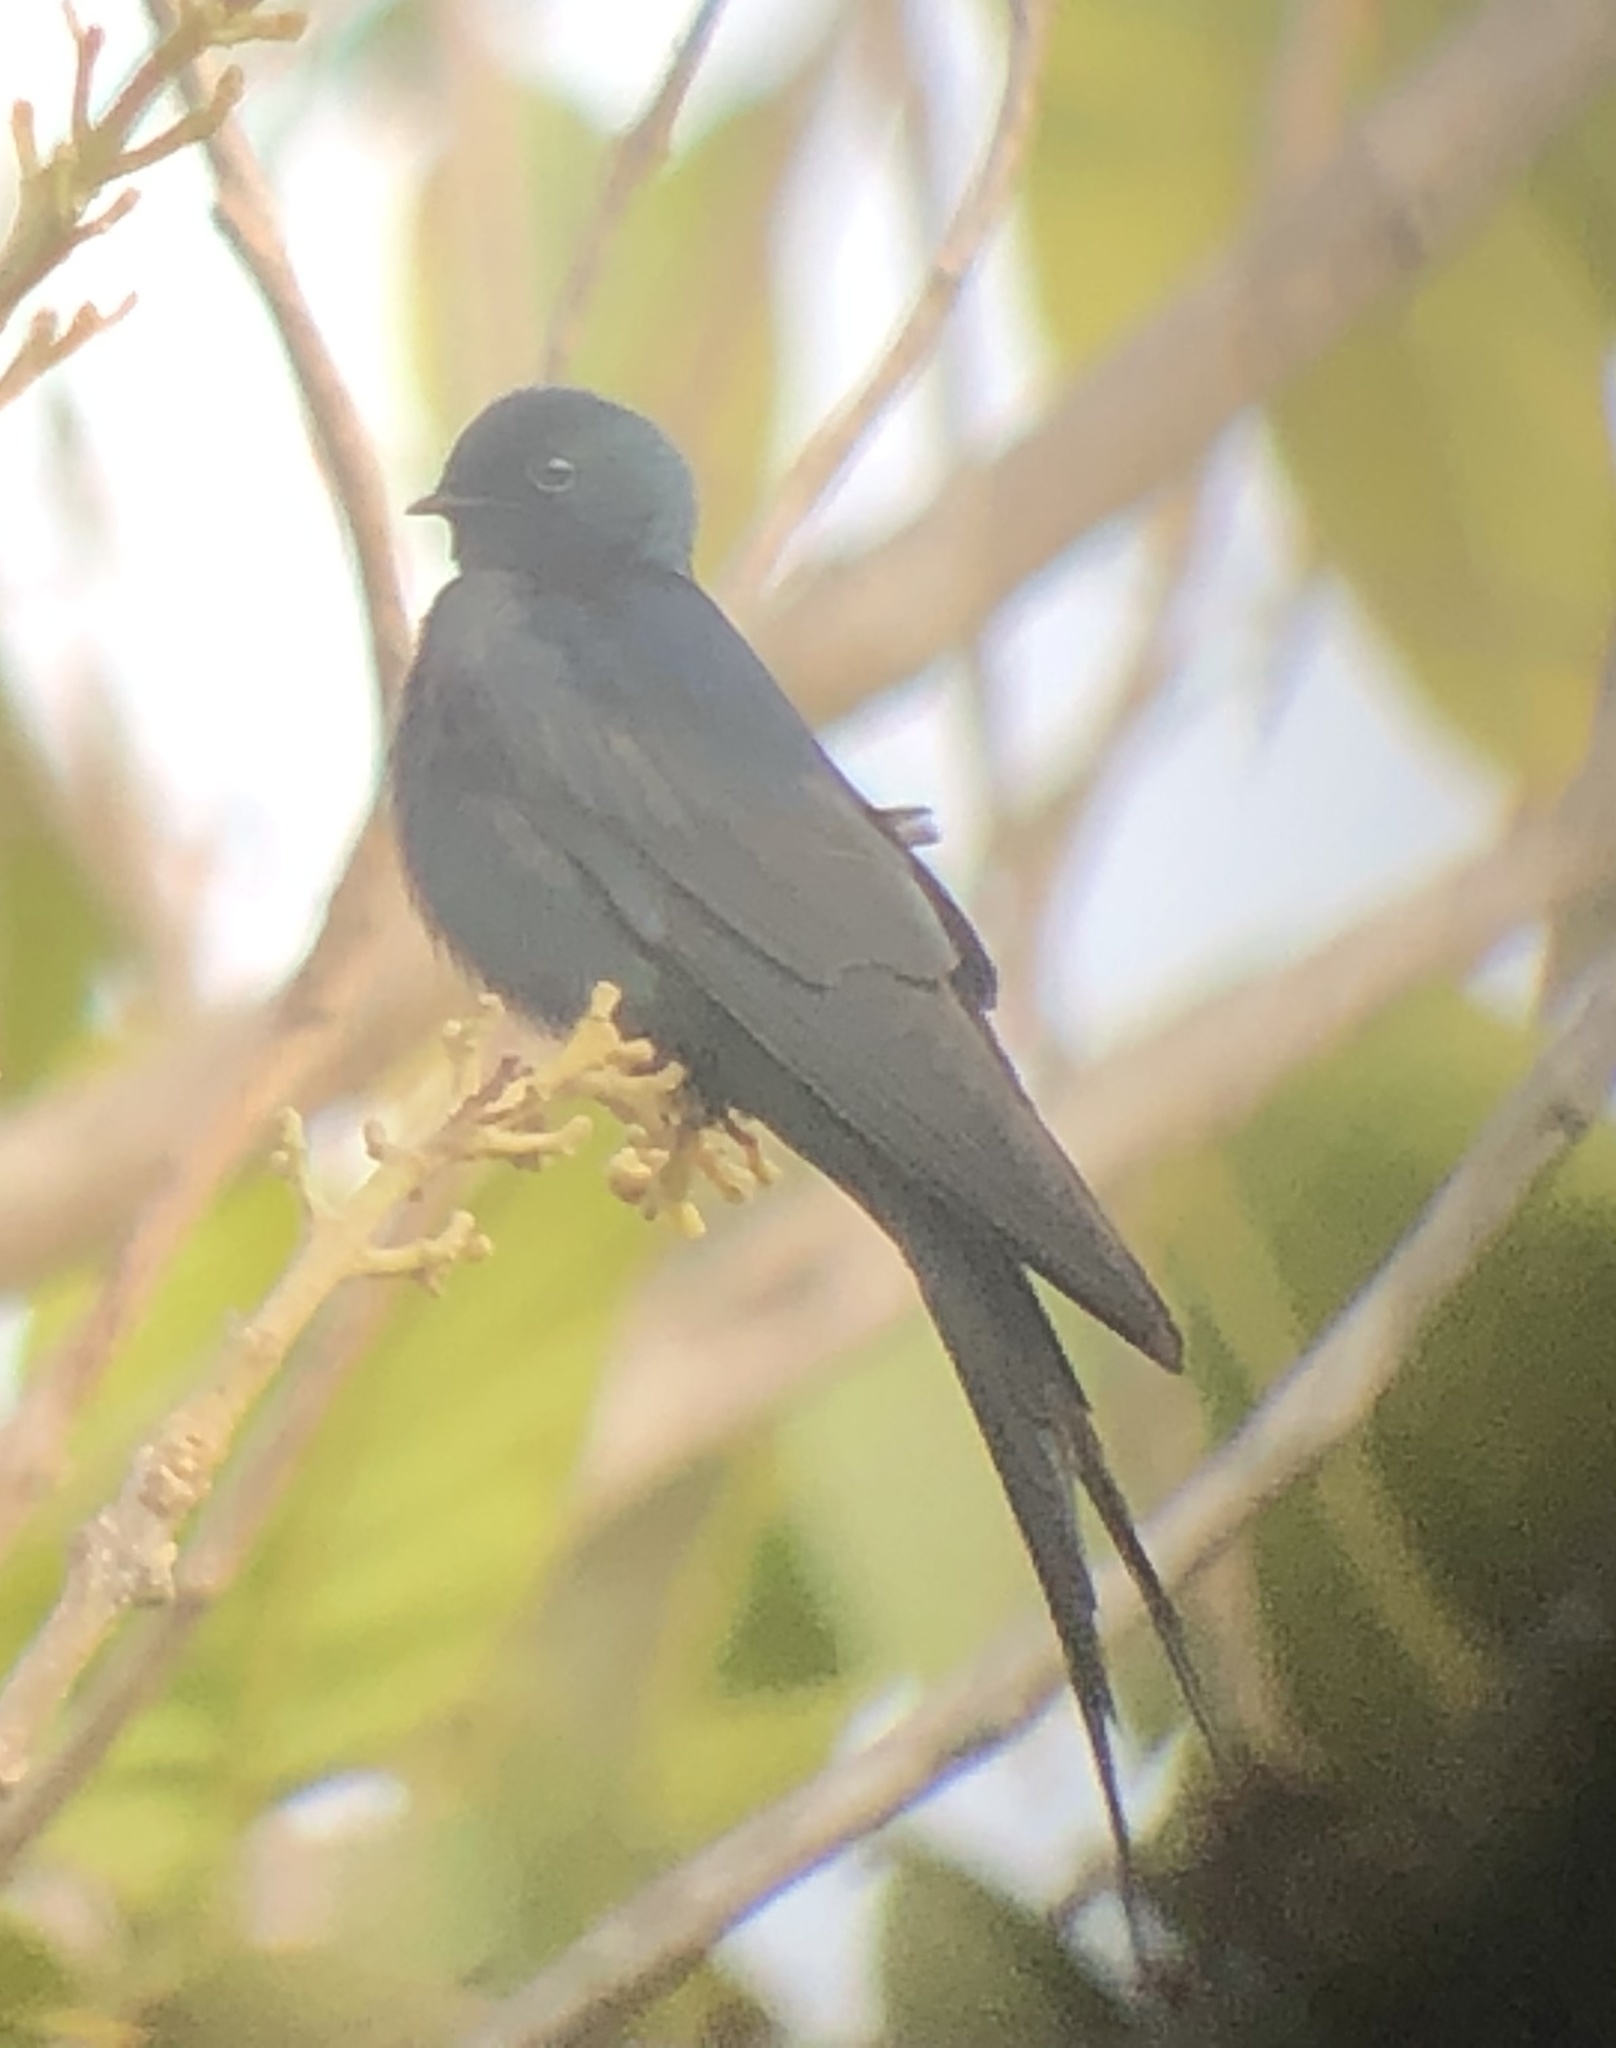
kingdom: Animalia
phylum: Chordata
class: Aves
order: Passeriformes
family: Hirundinidae
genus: Psalidoprocne
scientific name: Psalidoprocne obscura
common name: Fanti saw-wing
